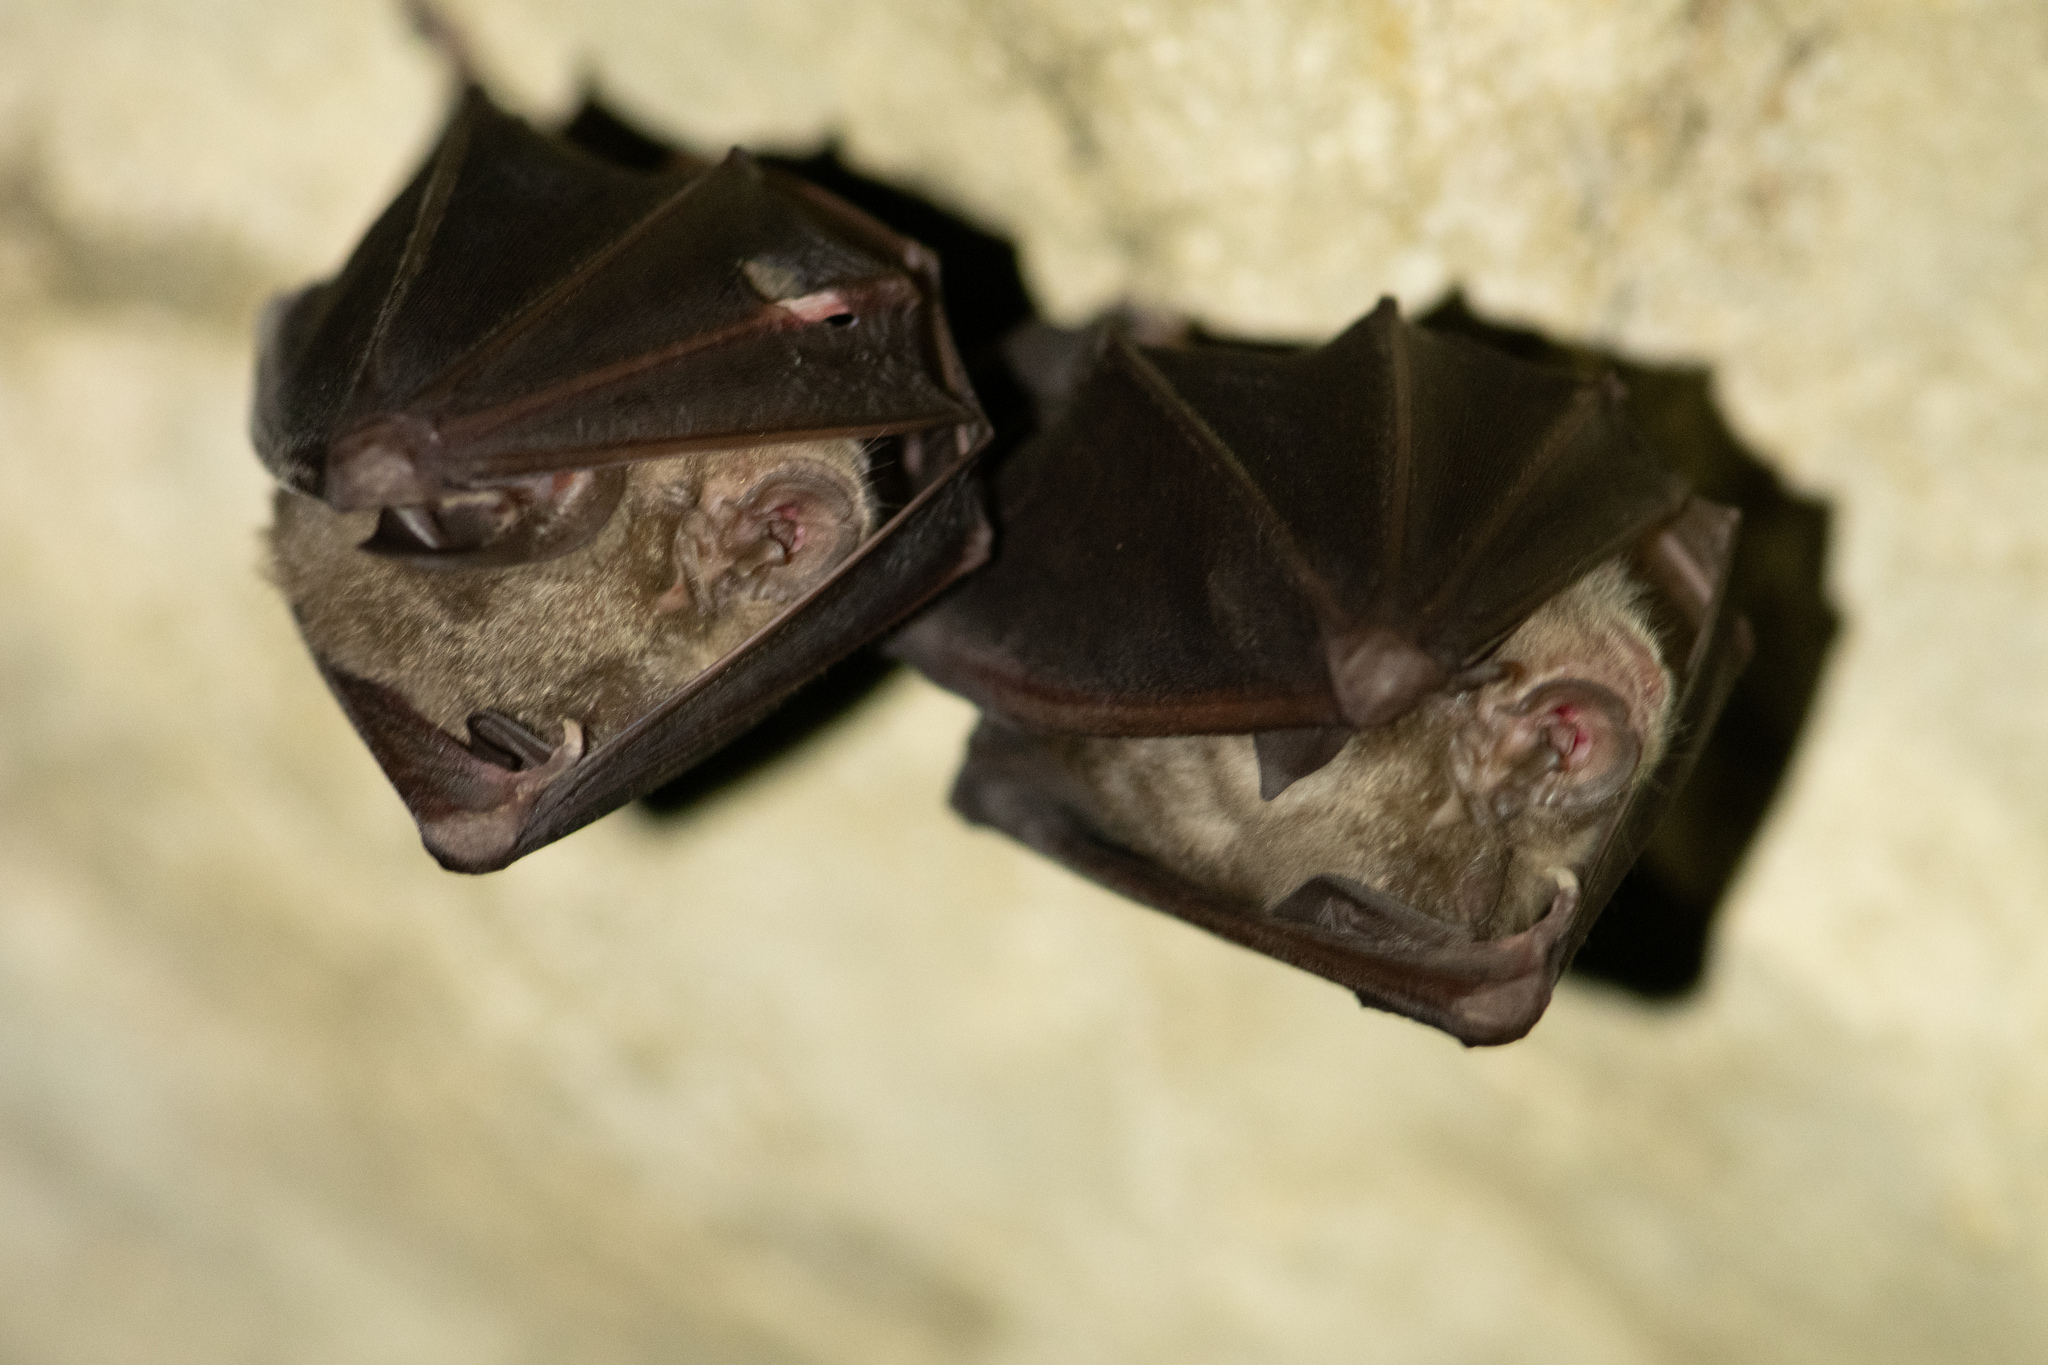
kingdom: Animalia
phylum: Chordata
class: Mammalia
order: Chiroptera
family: Rhinolophidae
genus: Rhinolophus
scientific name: Rhinolophus ferrumequinum
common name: Greater horseshoe bat
